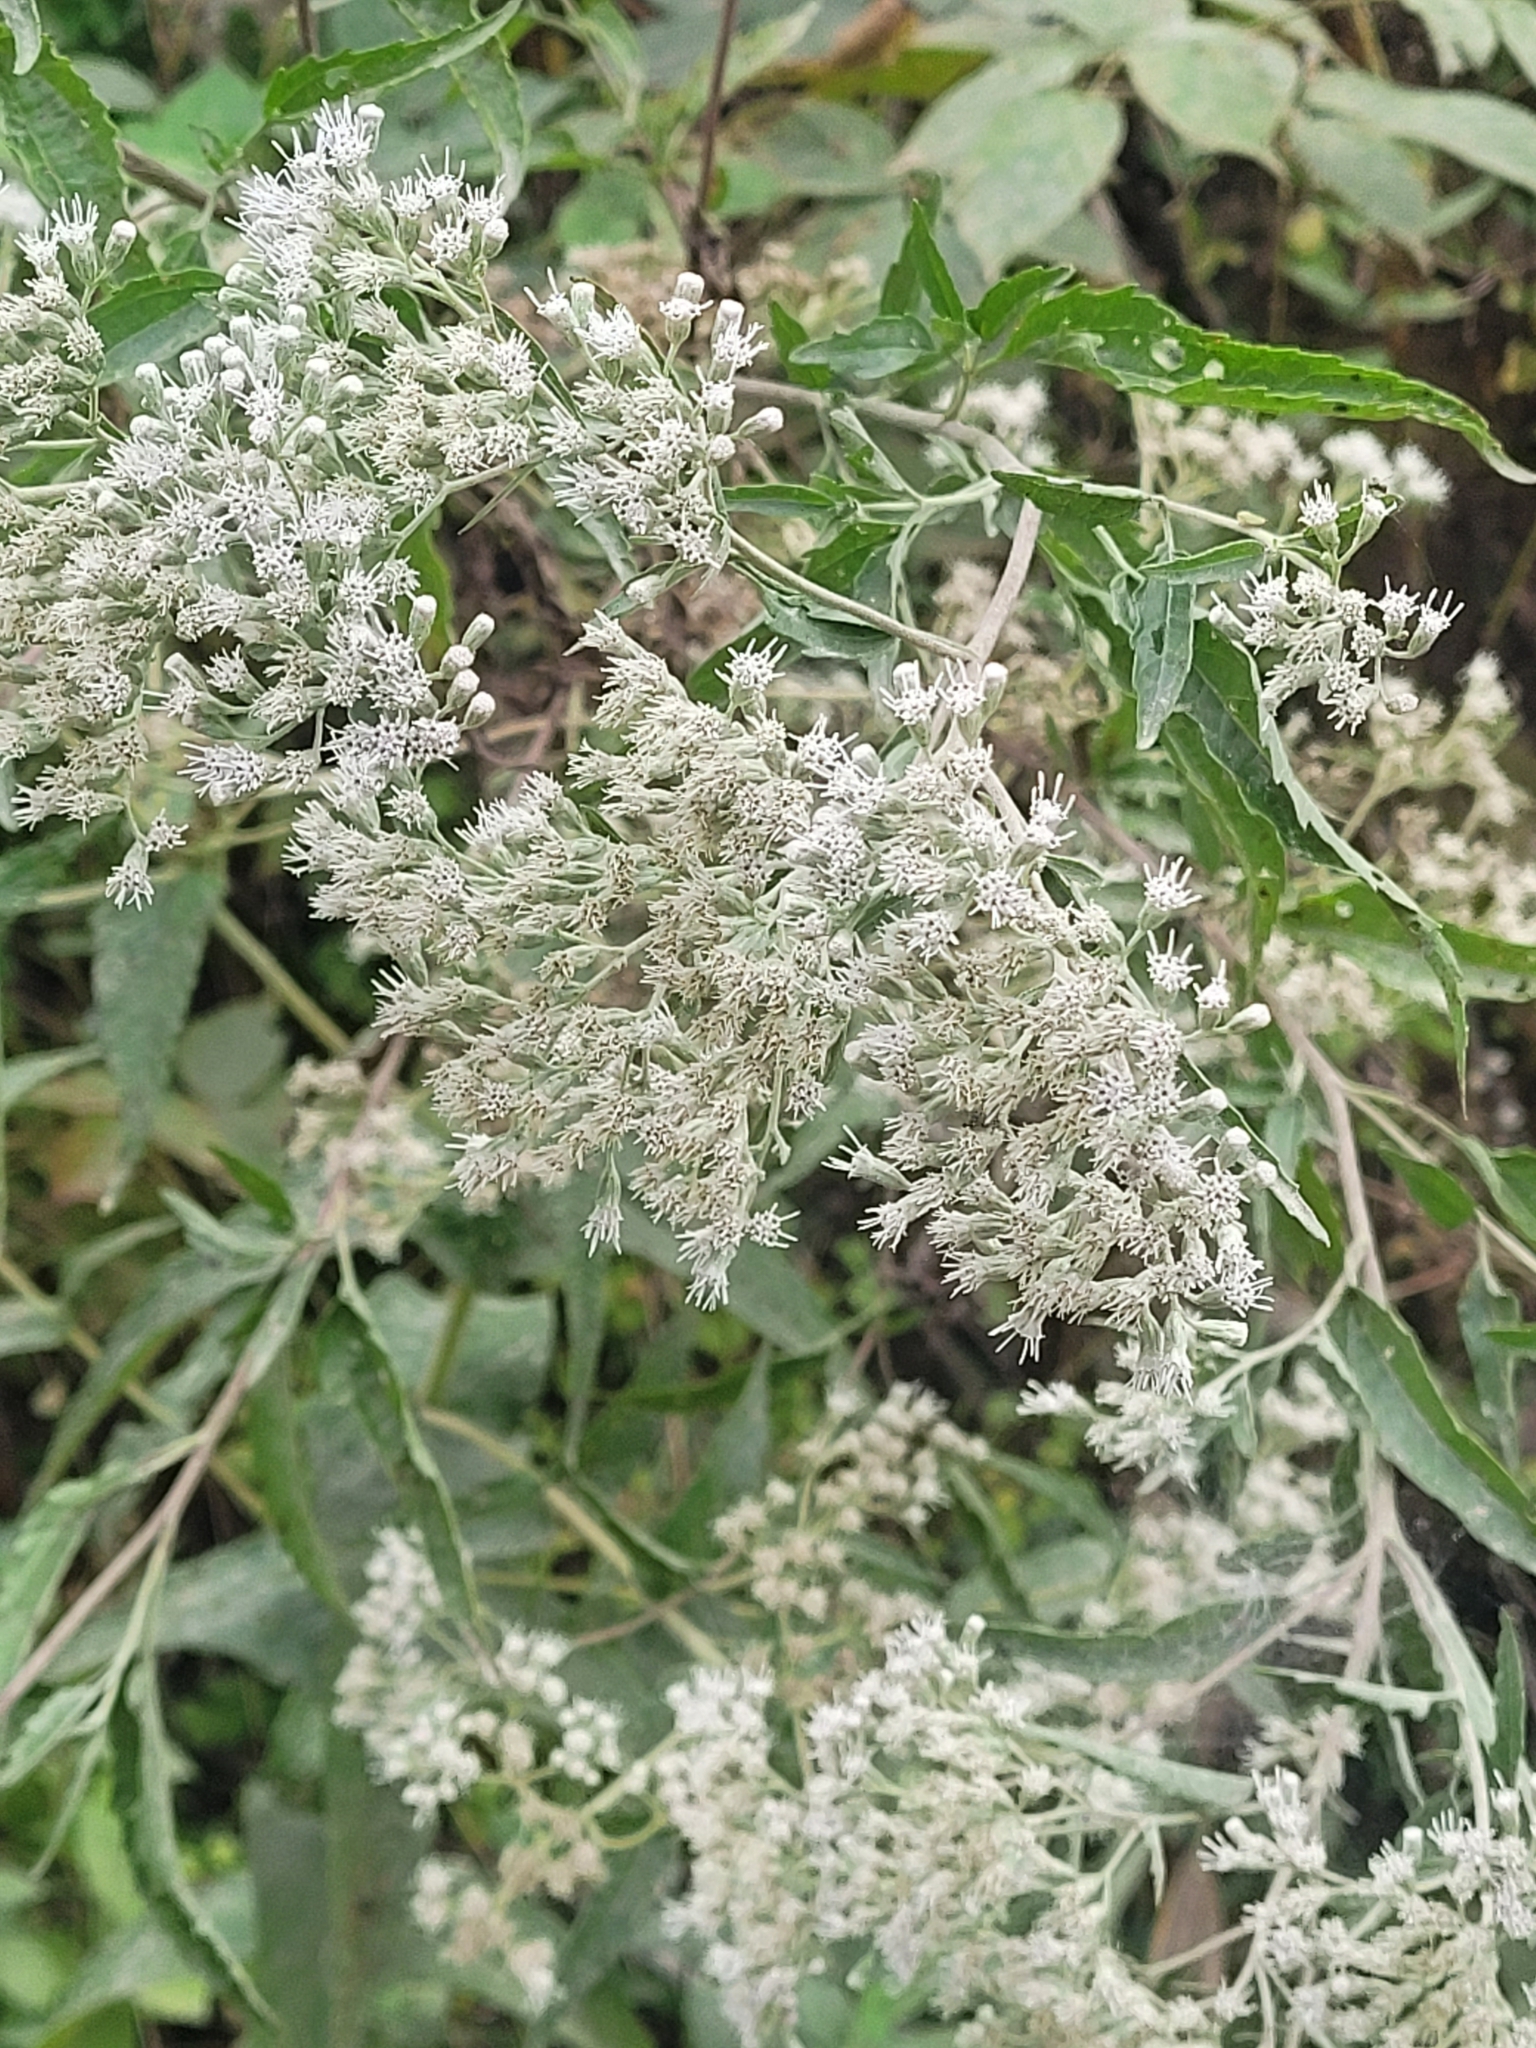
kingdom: Plantae
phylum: Tracheophyta
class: Magnoliopsida
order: Asterales
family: Asteraceae
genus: Eupatorium
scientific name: Eupatorium serotinum
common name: Late boneset
